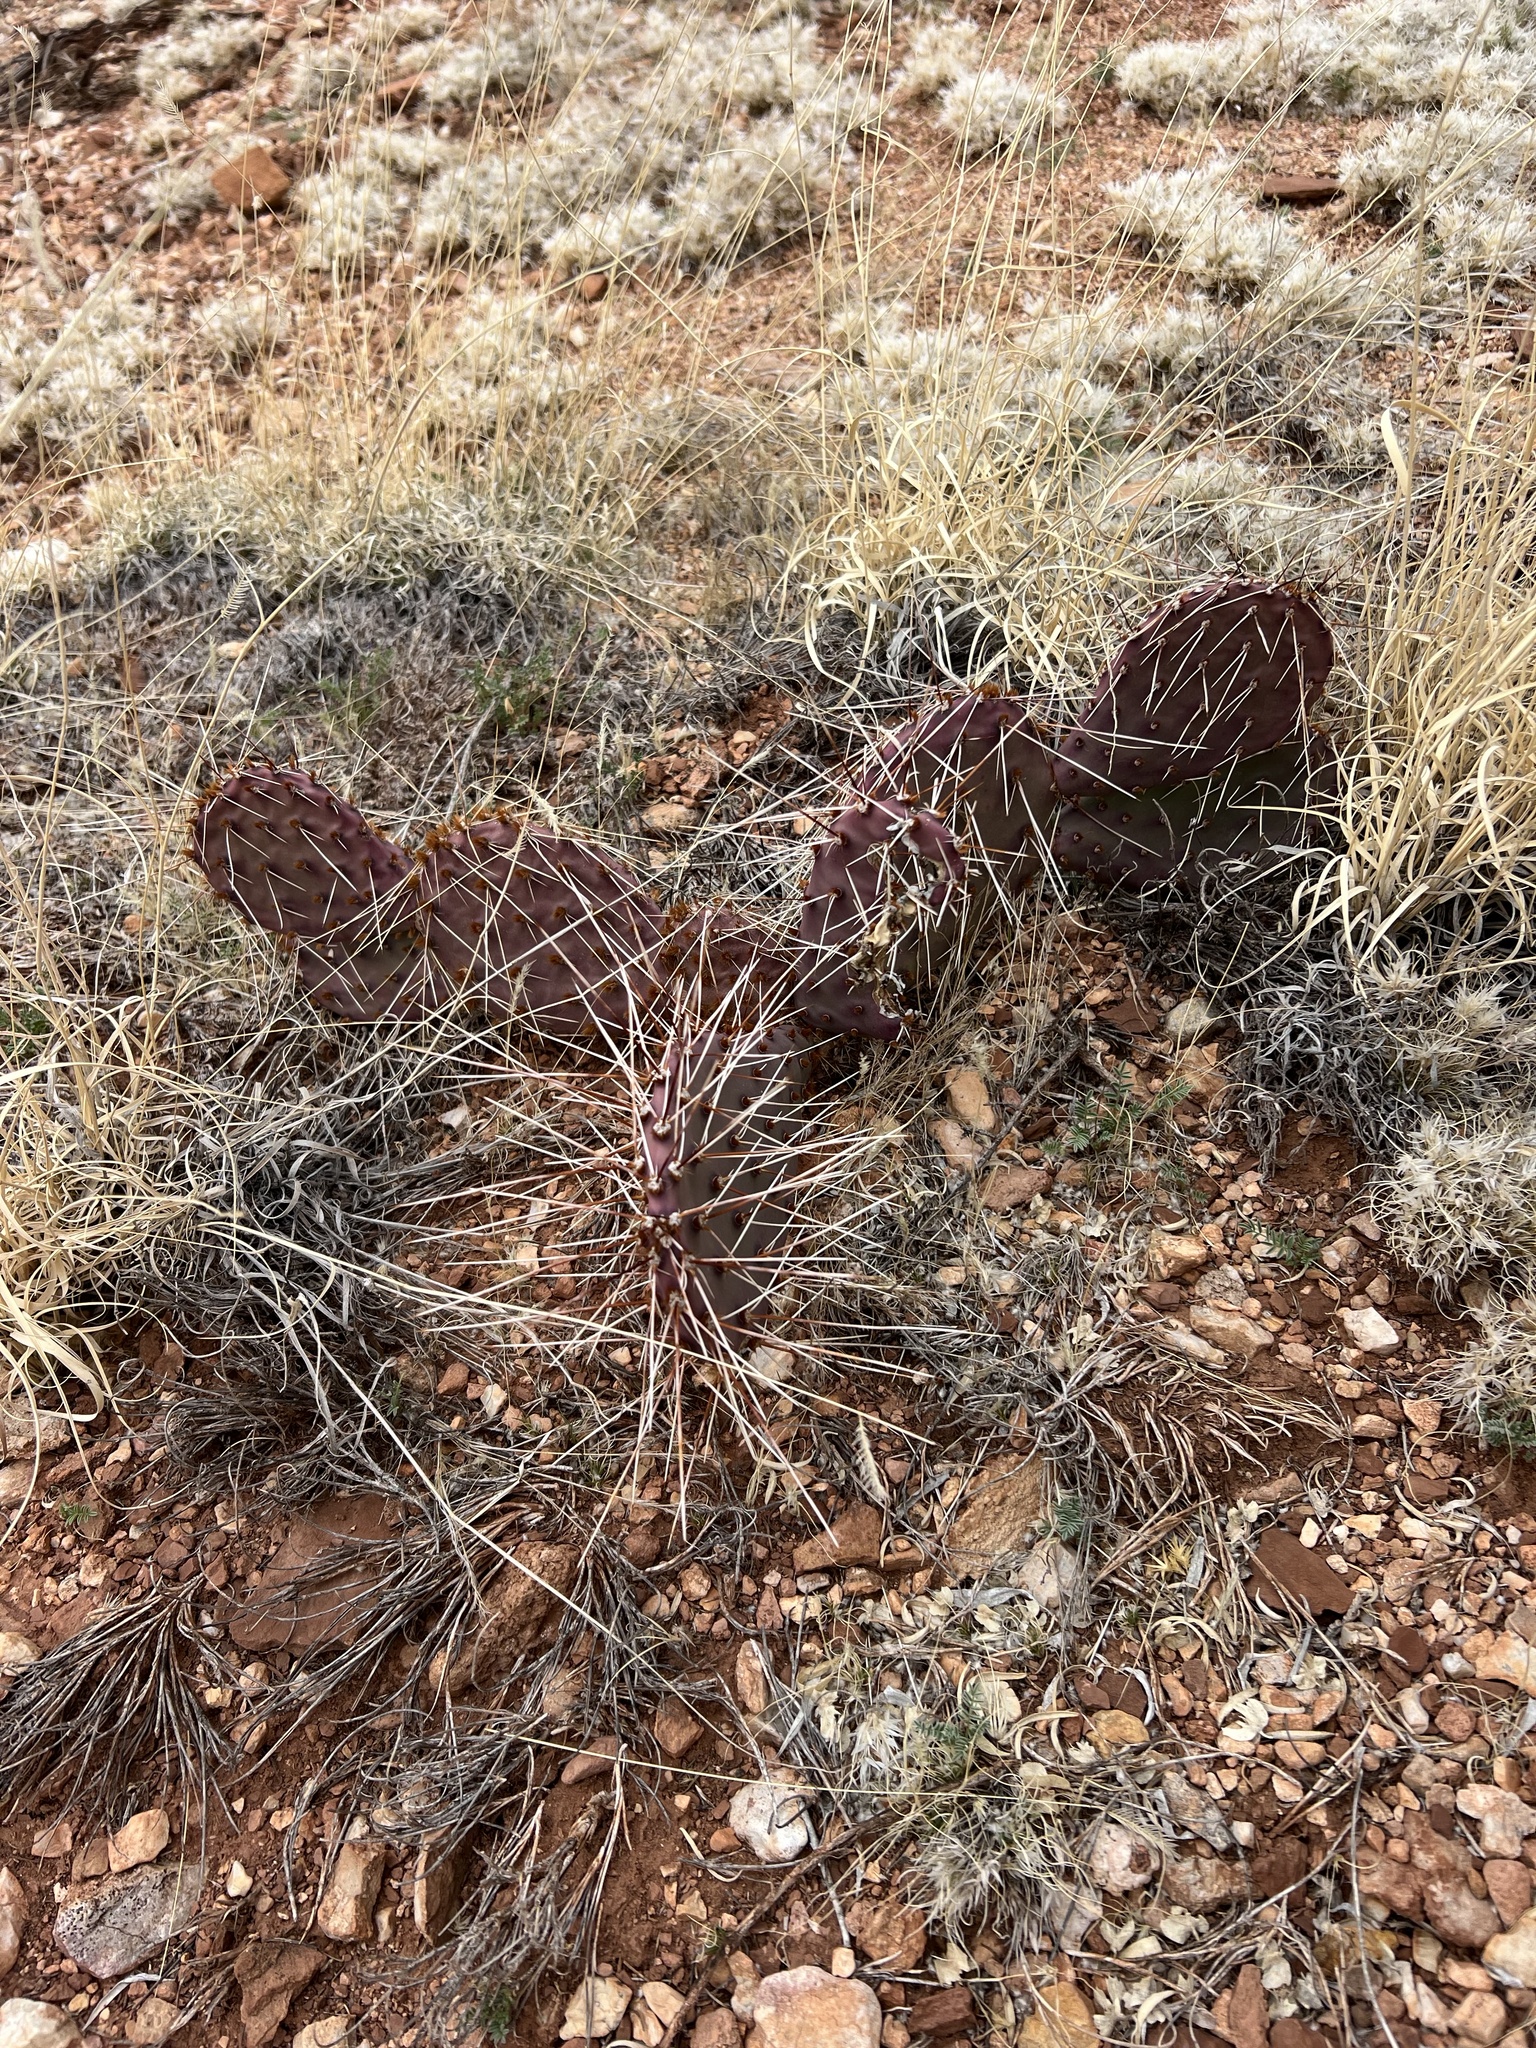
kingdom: Plantae
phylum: Tracheophyta
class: Magnoliopsida
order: Caryophyllales
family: Cactaceae
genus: Opuntia
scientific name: Opuntia phaeacantha
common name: New mexico prickly-pear
